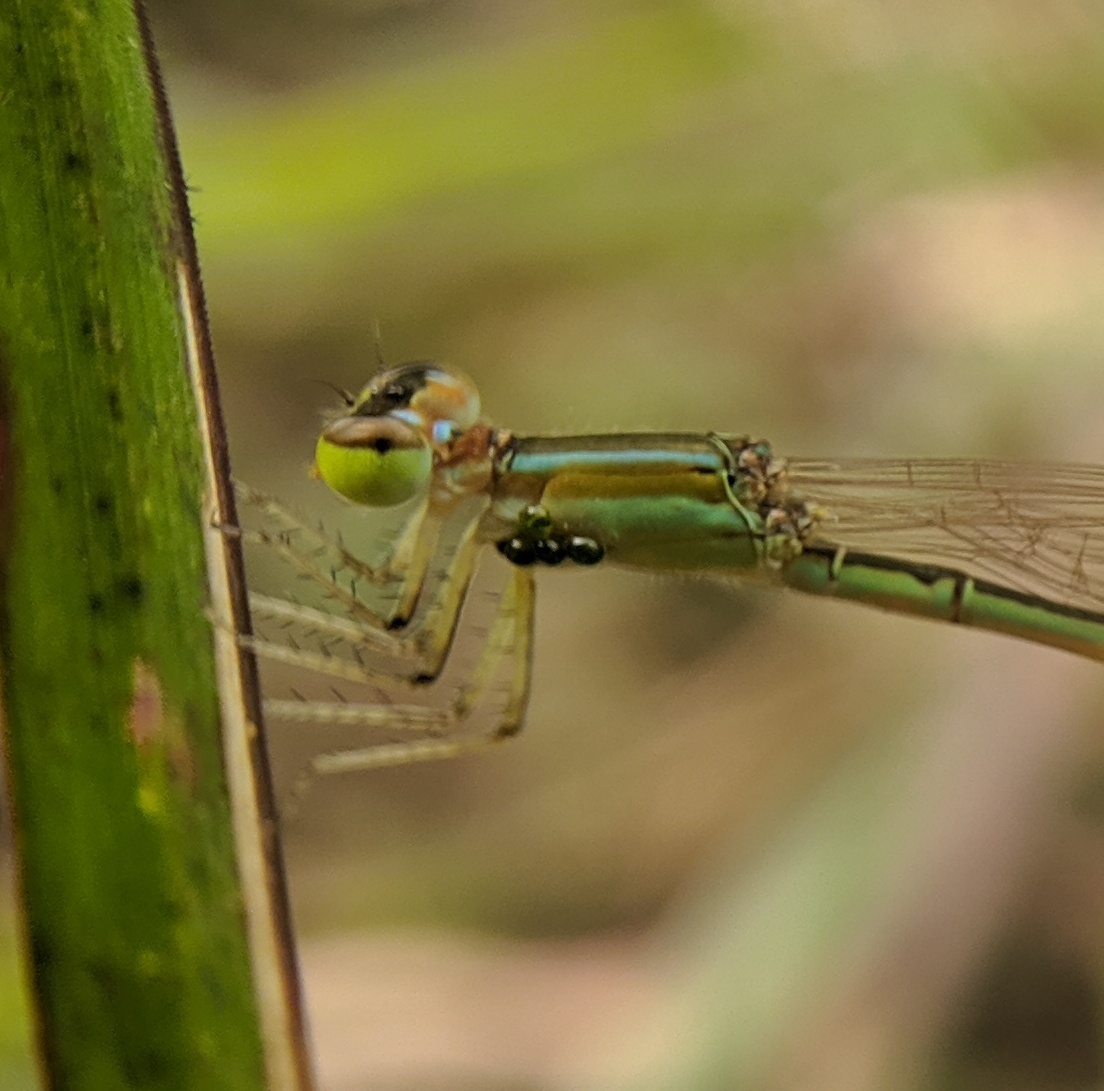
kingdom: Animalia
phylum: Arthropoda
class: Insecta
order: Odonata
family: Coenagrionidae
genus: Agriocnemis
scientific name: Agriocnemis pygmaea
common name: Pygmy wisp
